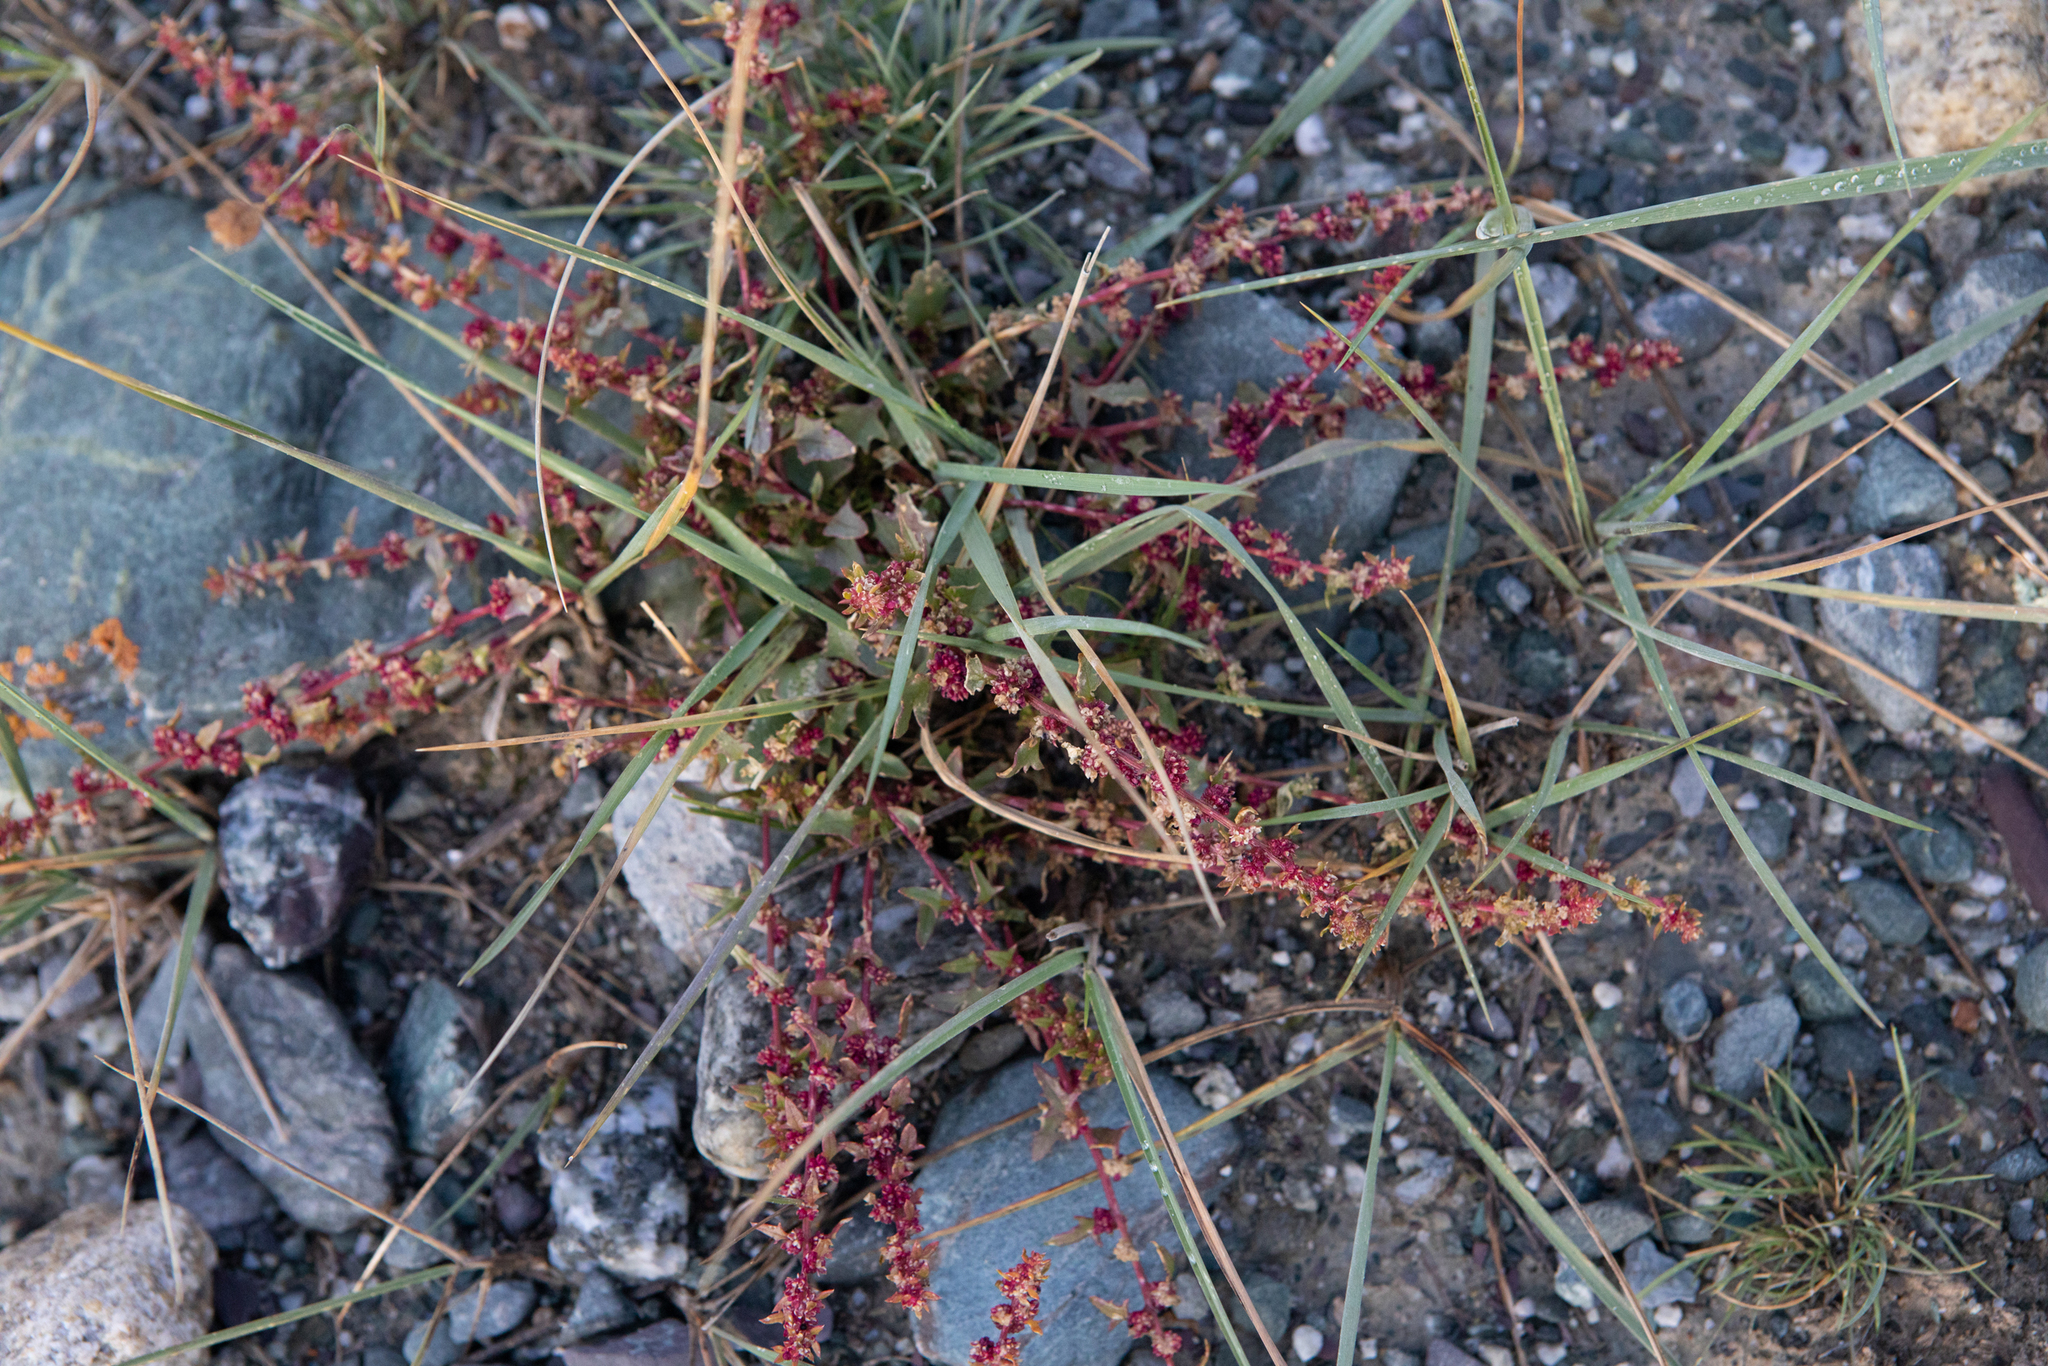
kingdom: Plantae
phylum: Tracheophyta
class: Magnoliopsida
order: Caryophyllales
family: Amaranthaceae
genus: Blitum
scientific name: Blitum virgatum
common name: Strawberry goosefoot
